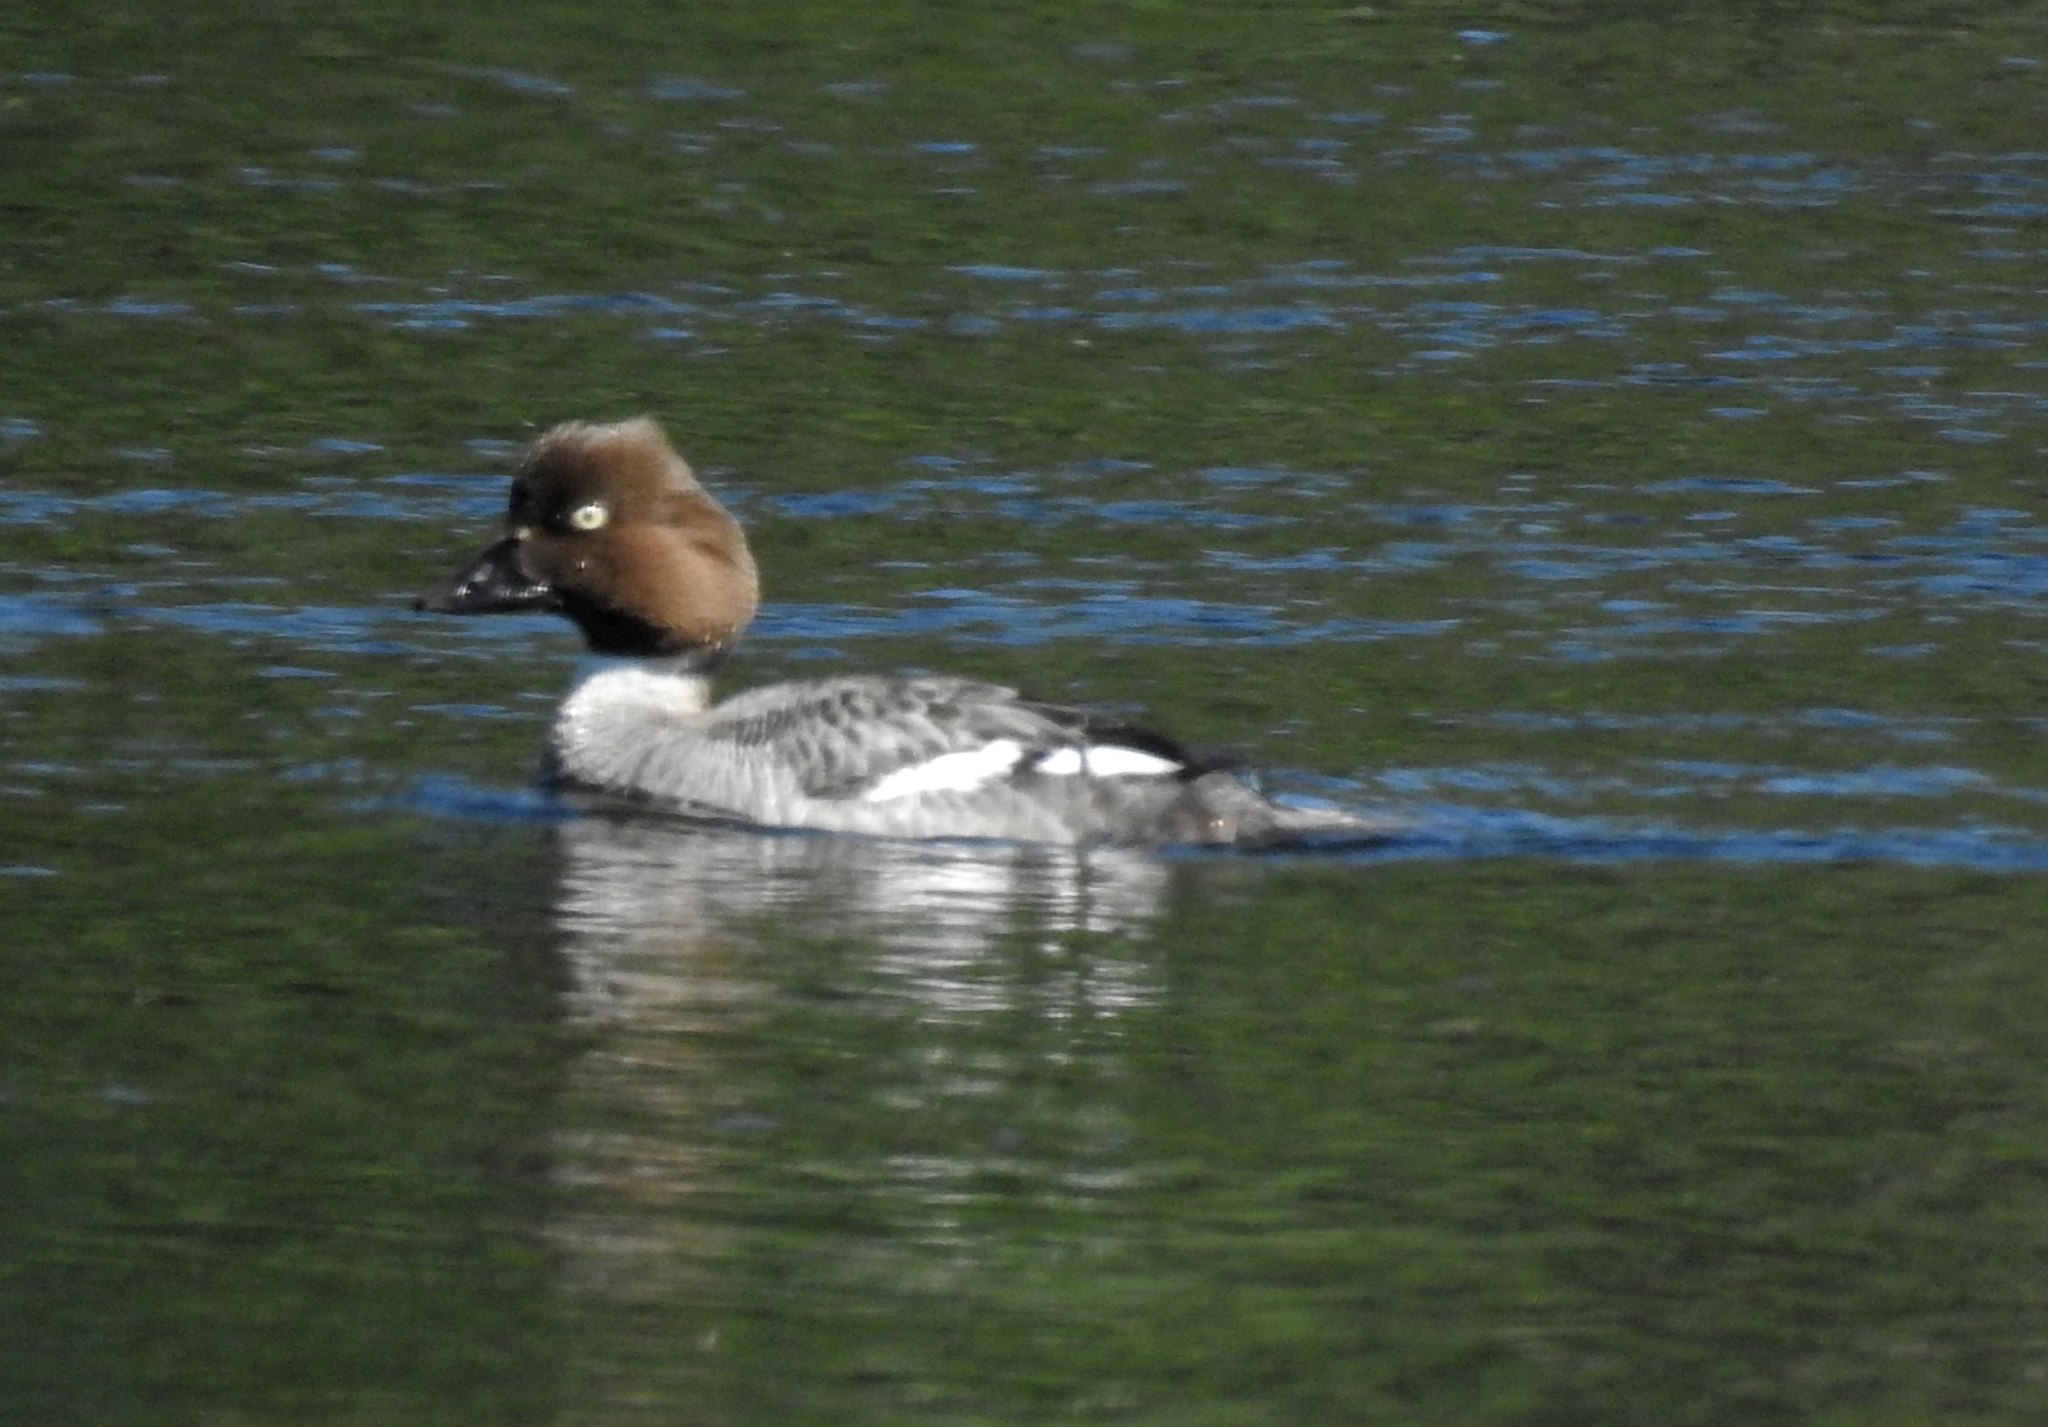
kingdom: Animalia
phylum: Chordata
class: Aves
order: Anseriformes
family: Anatidae
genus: Bucephala
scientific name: Bucephala clangula
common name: Common goldeneye
